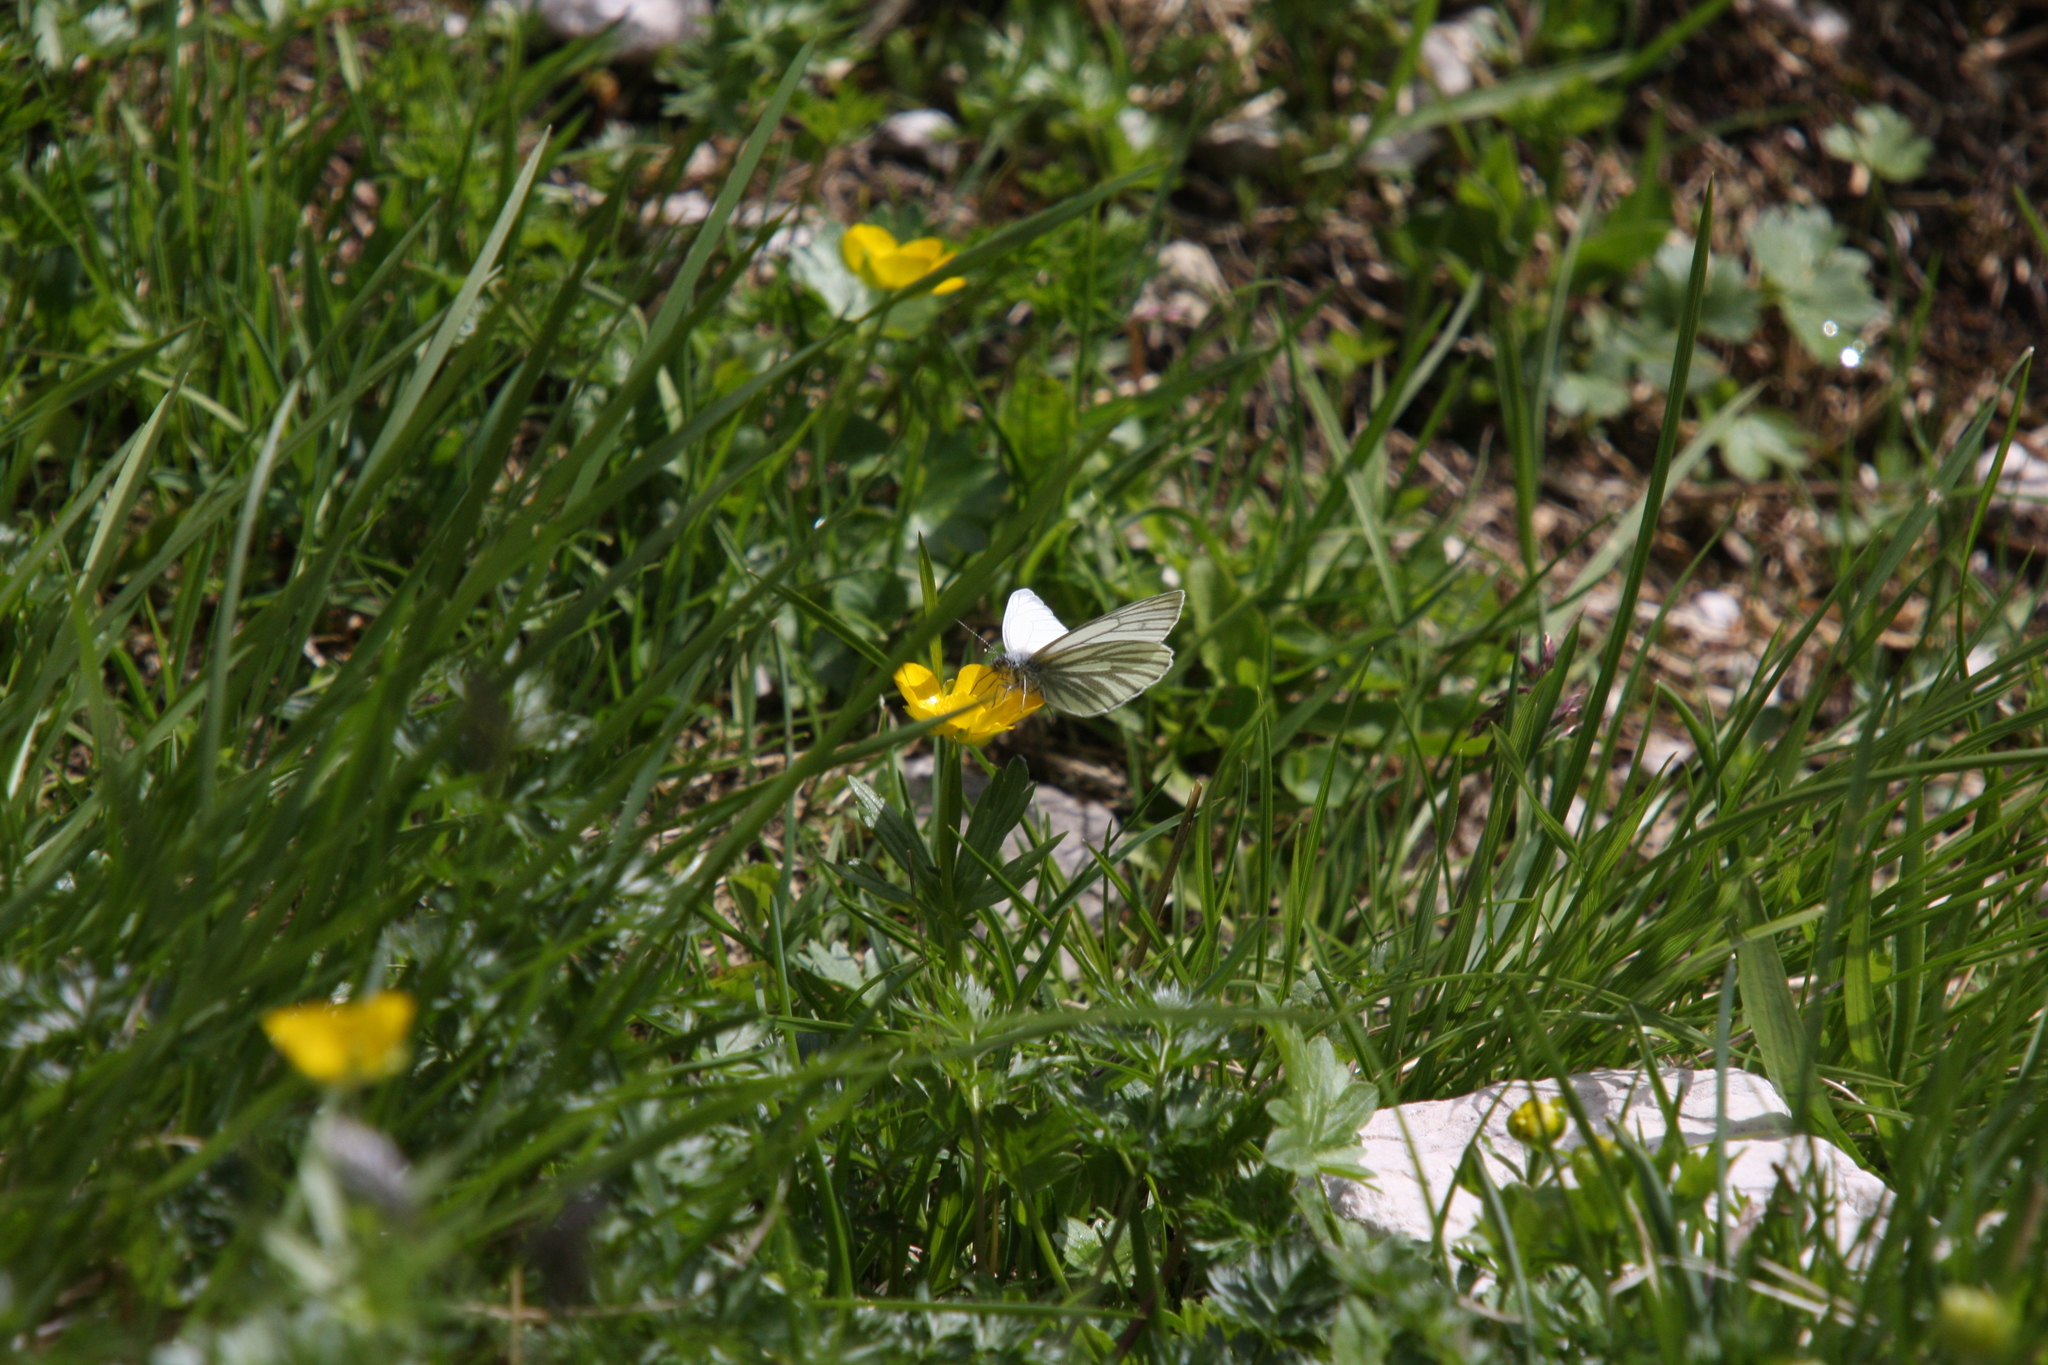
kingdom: Animalia
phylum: Arthropoda
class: Insecta
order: Lepidoptera
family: Pieridae
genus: Pieris
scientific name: Pieris bryoniae
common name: Mountain green-veined white
